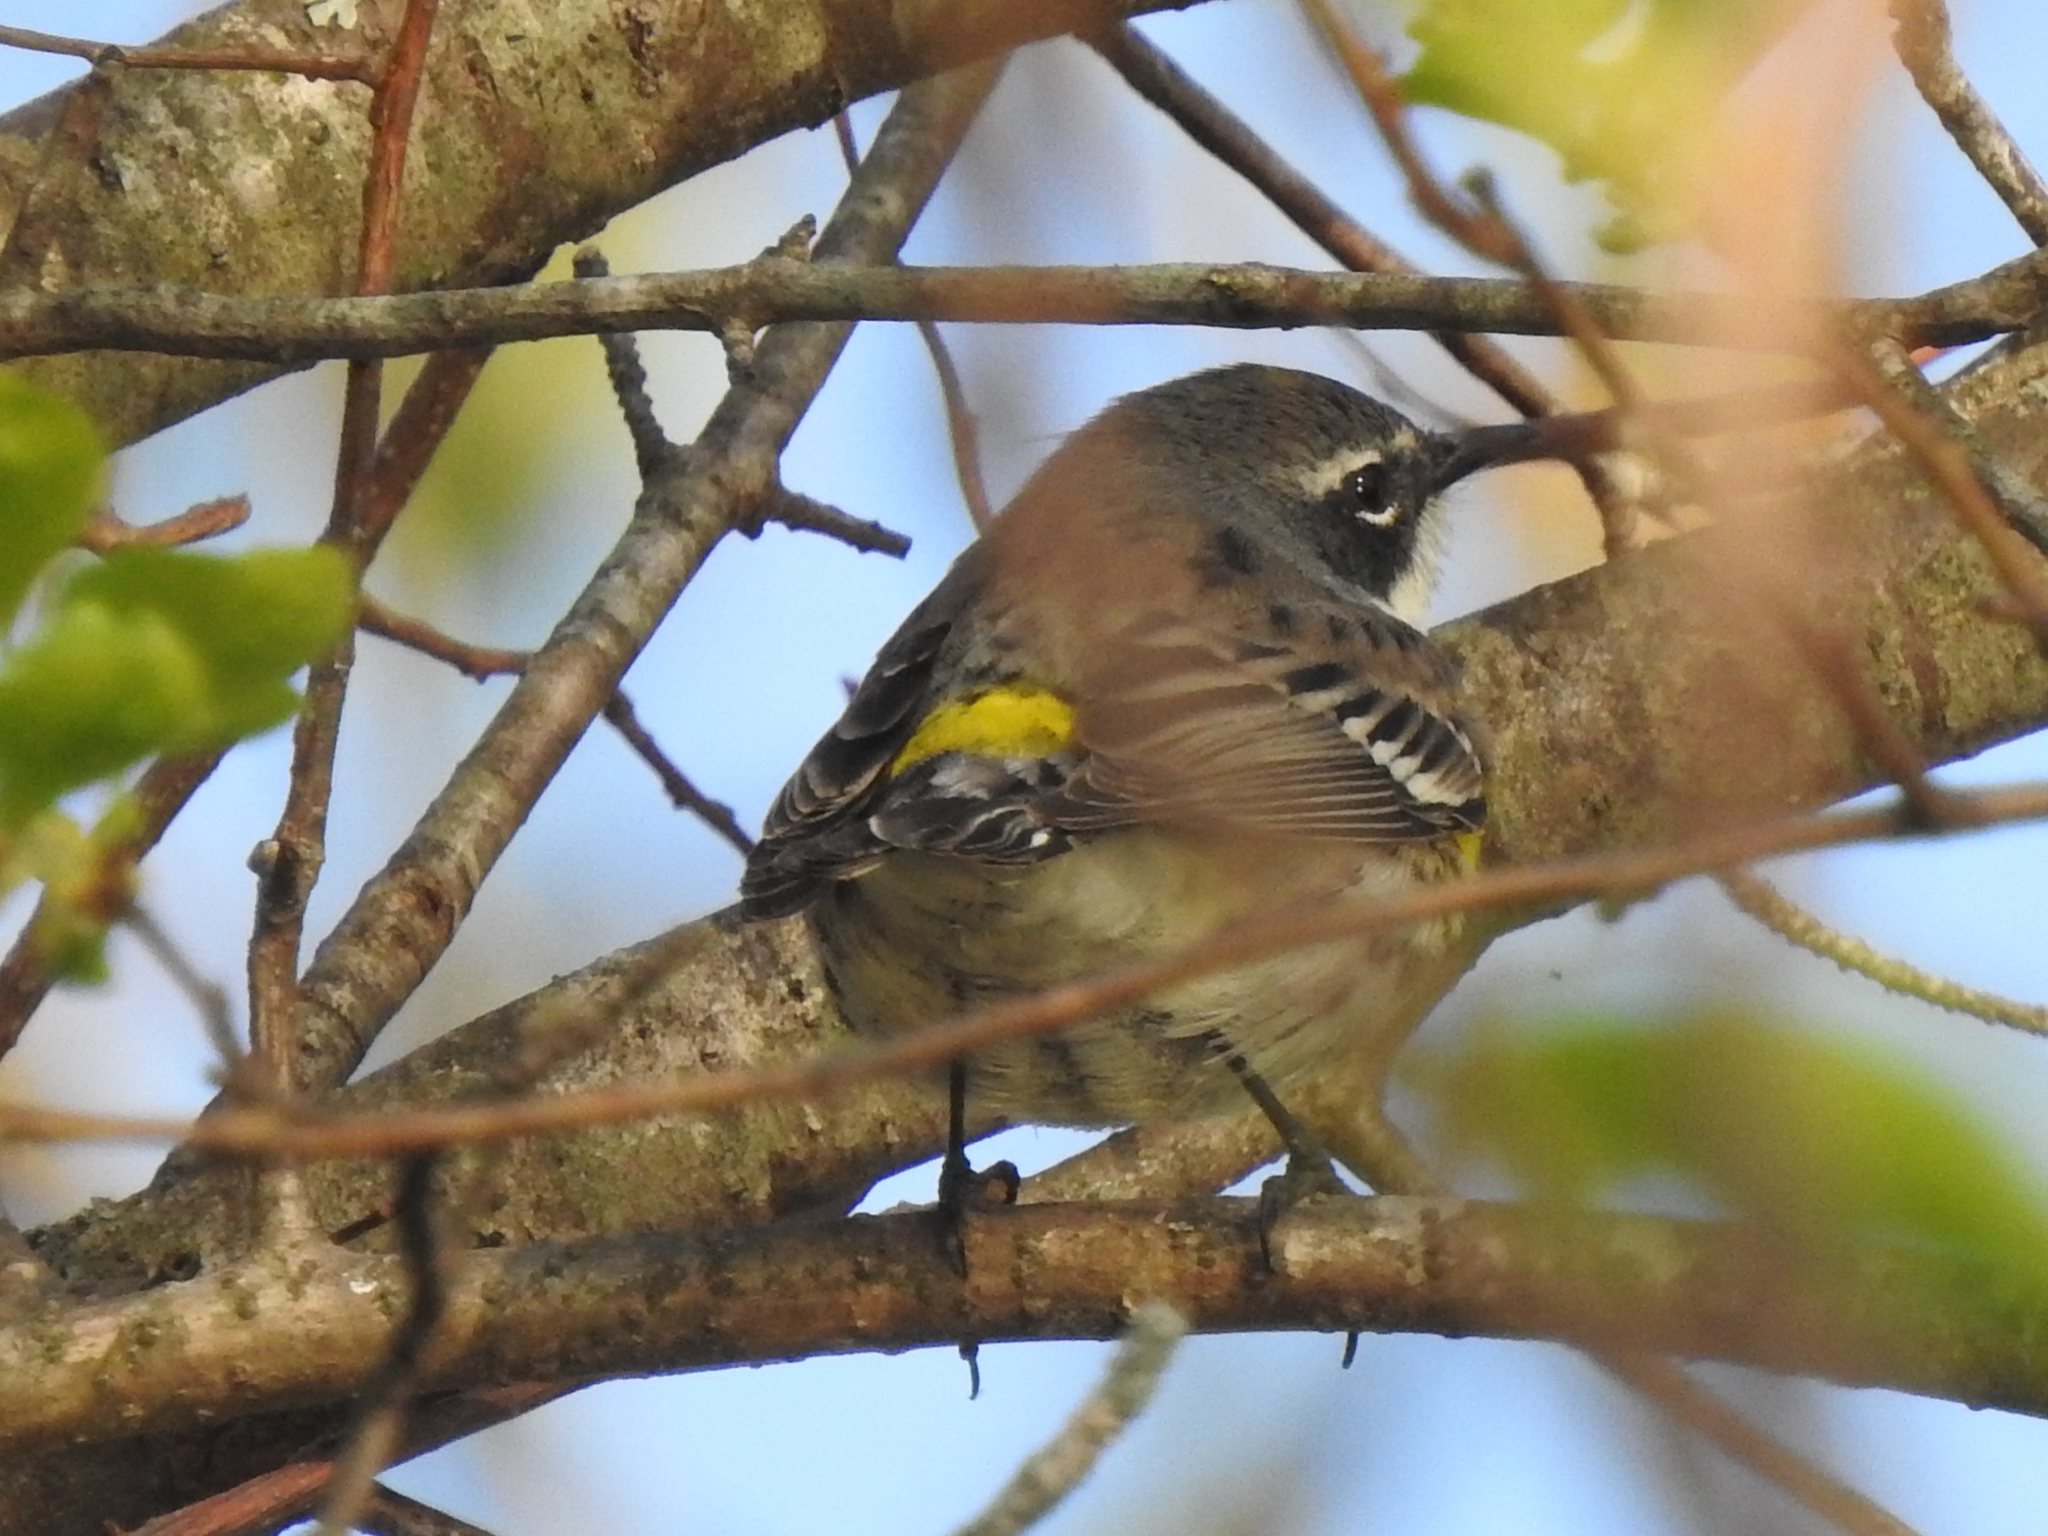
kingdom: Animalia
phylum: Chordata
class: Aves
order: Passeriformes
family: Parulidae
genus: Setophaga
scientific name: Setophaga coronata
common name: Myrtle warbler
